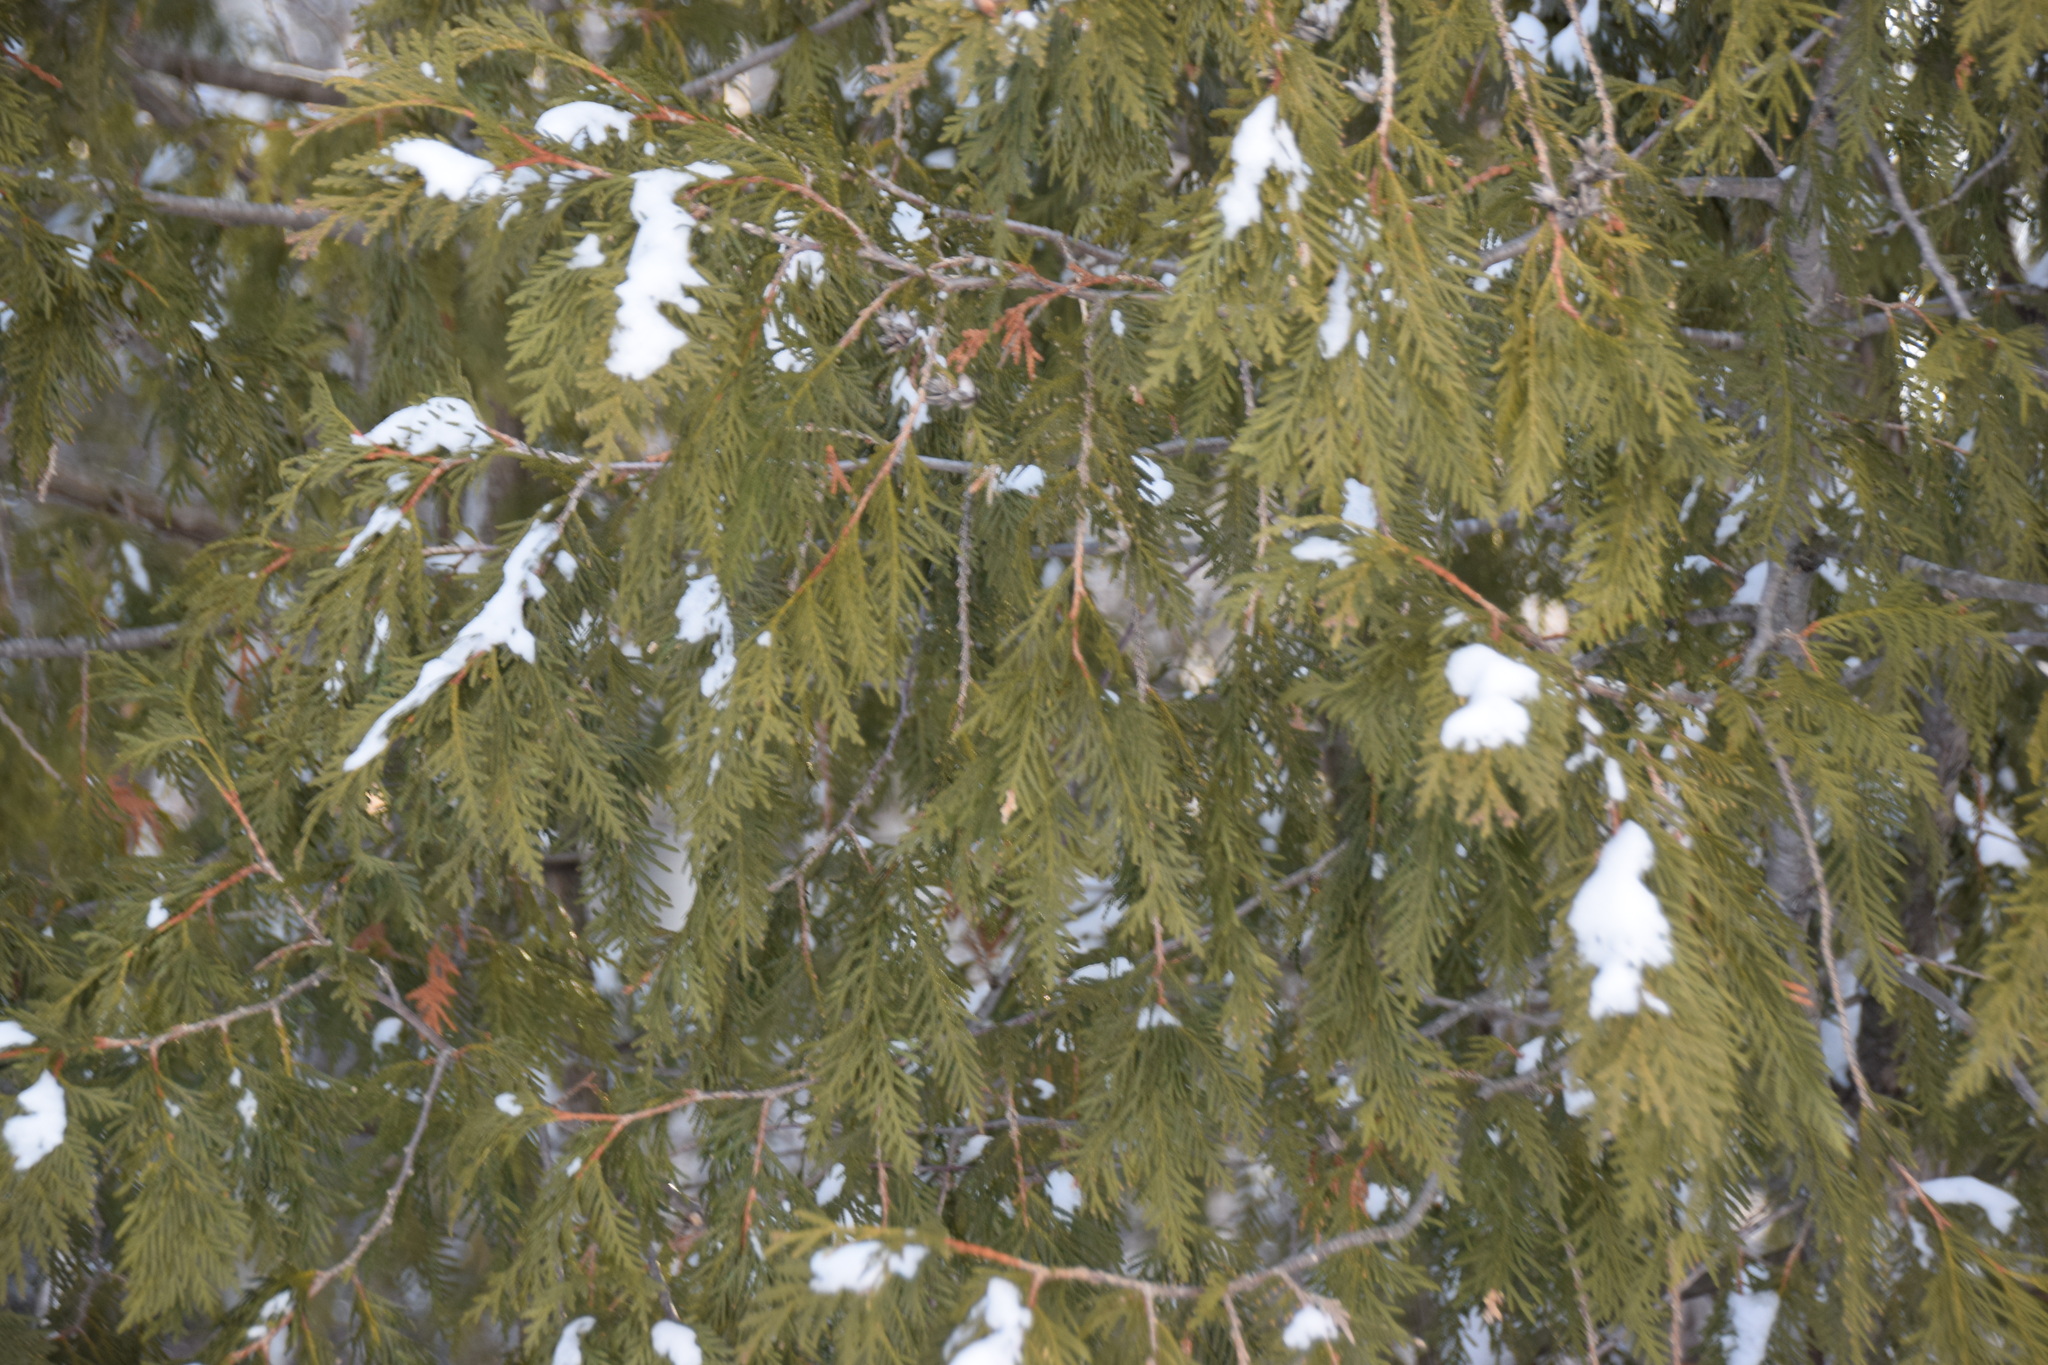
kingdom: Plantae
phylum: Tracheophyta
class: Pinopsida
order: Pinales
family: Cupressaceae
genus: Thuja
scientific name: Thuja occidentalis
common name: Northern white-cedar
